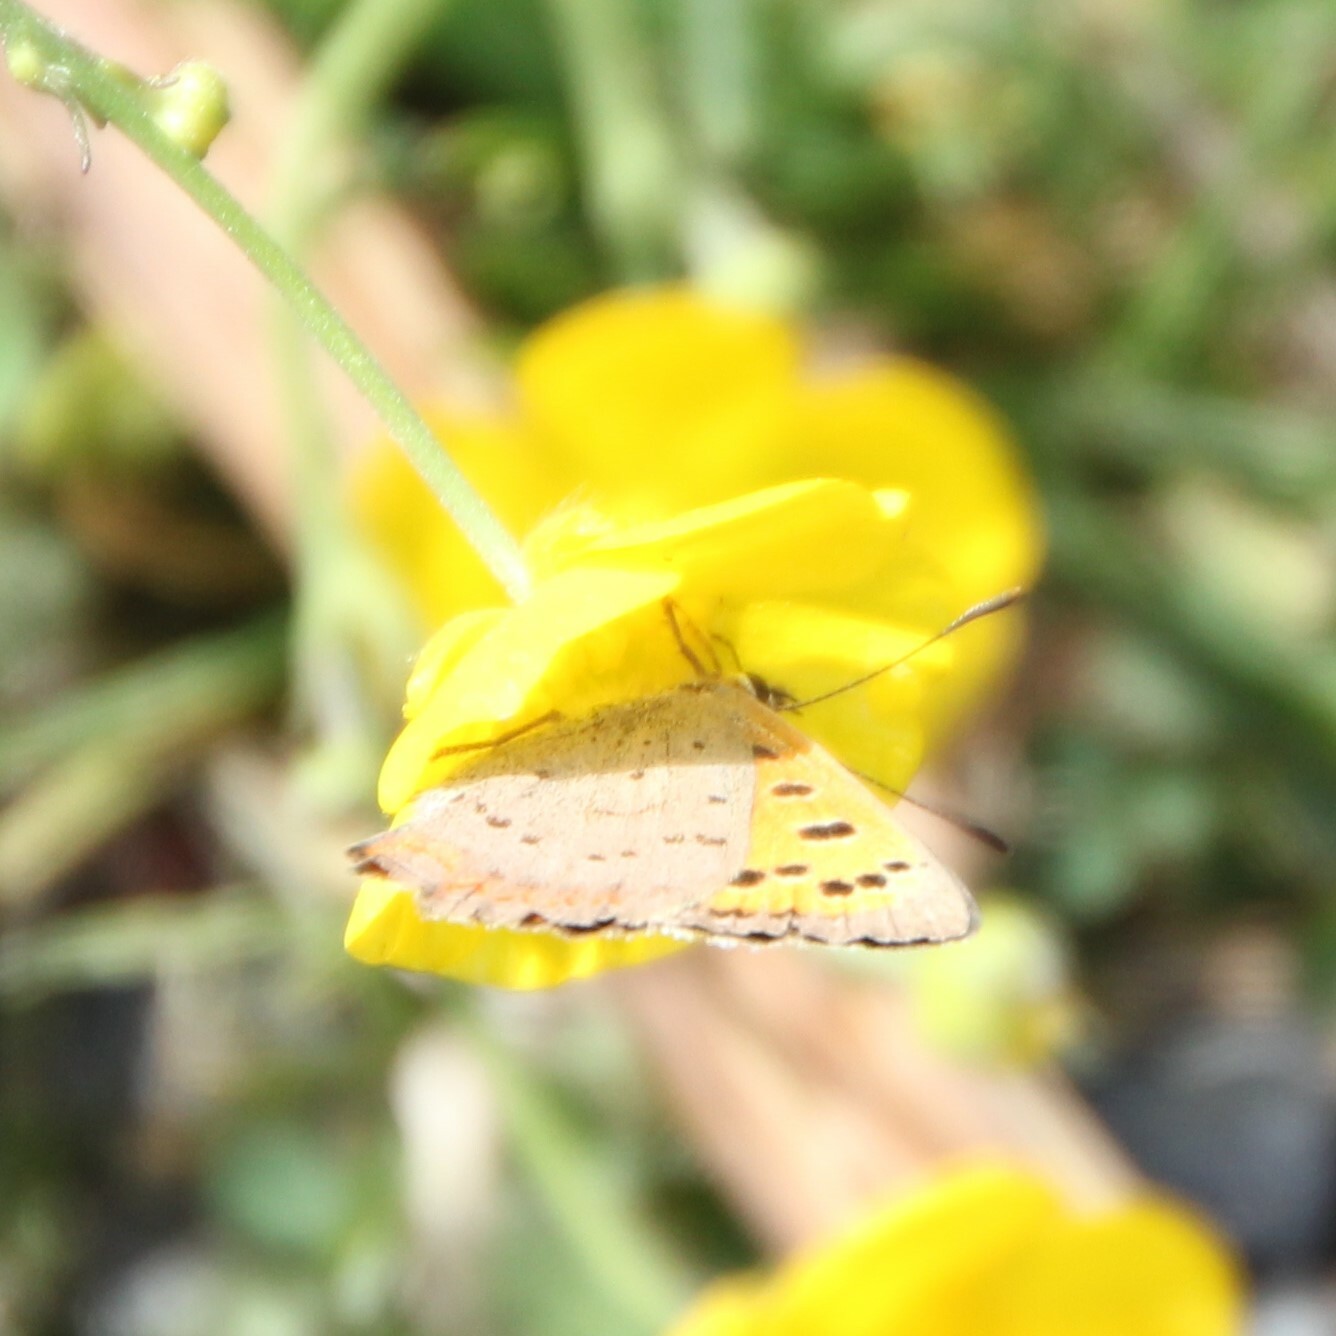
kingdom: Animalia
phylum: Arthropoda
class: Insecta
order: Lepidoptera
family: Lycaenidae
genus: Lycaena
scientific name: Lycaena phlaeas
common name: Small copper
